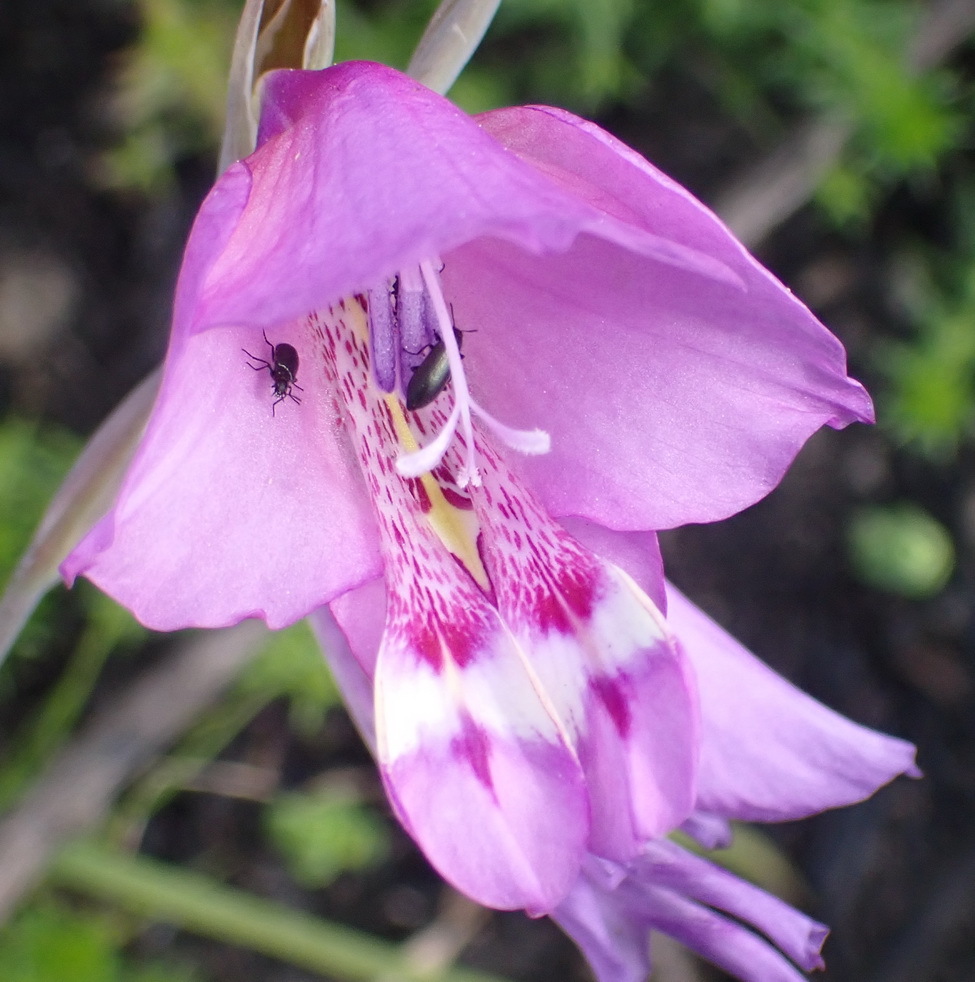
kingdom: Plantae
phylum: Tracheophyta
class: Liliopsida
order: Asparagales
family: Iridaceae
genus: Gladiolus
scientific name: Gladiolus rogersii
